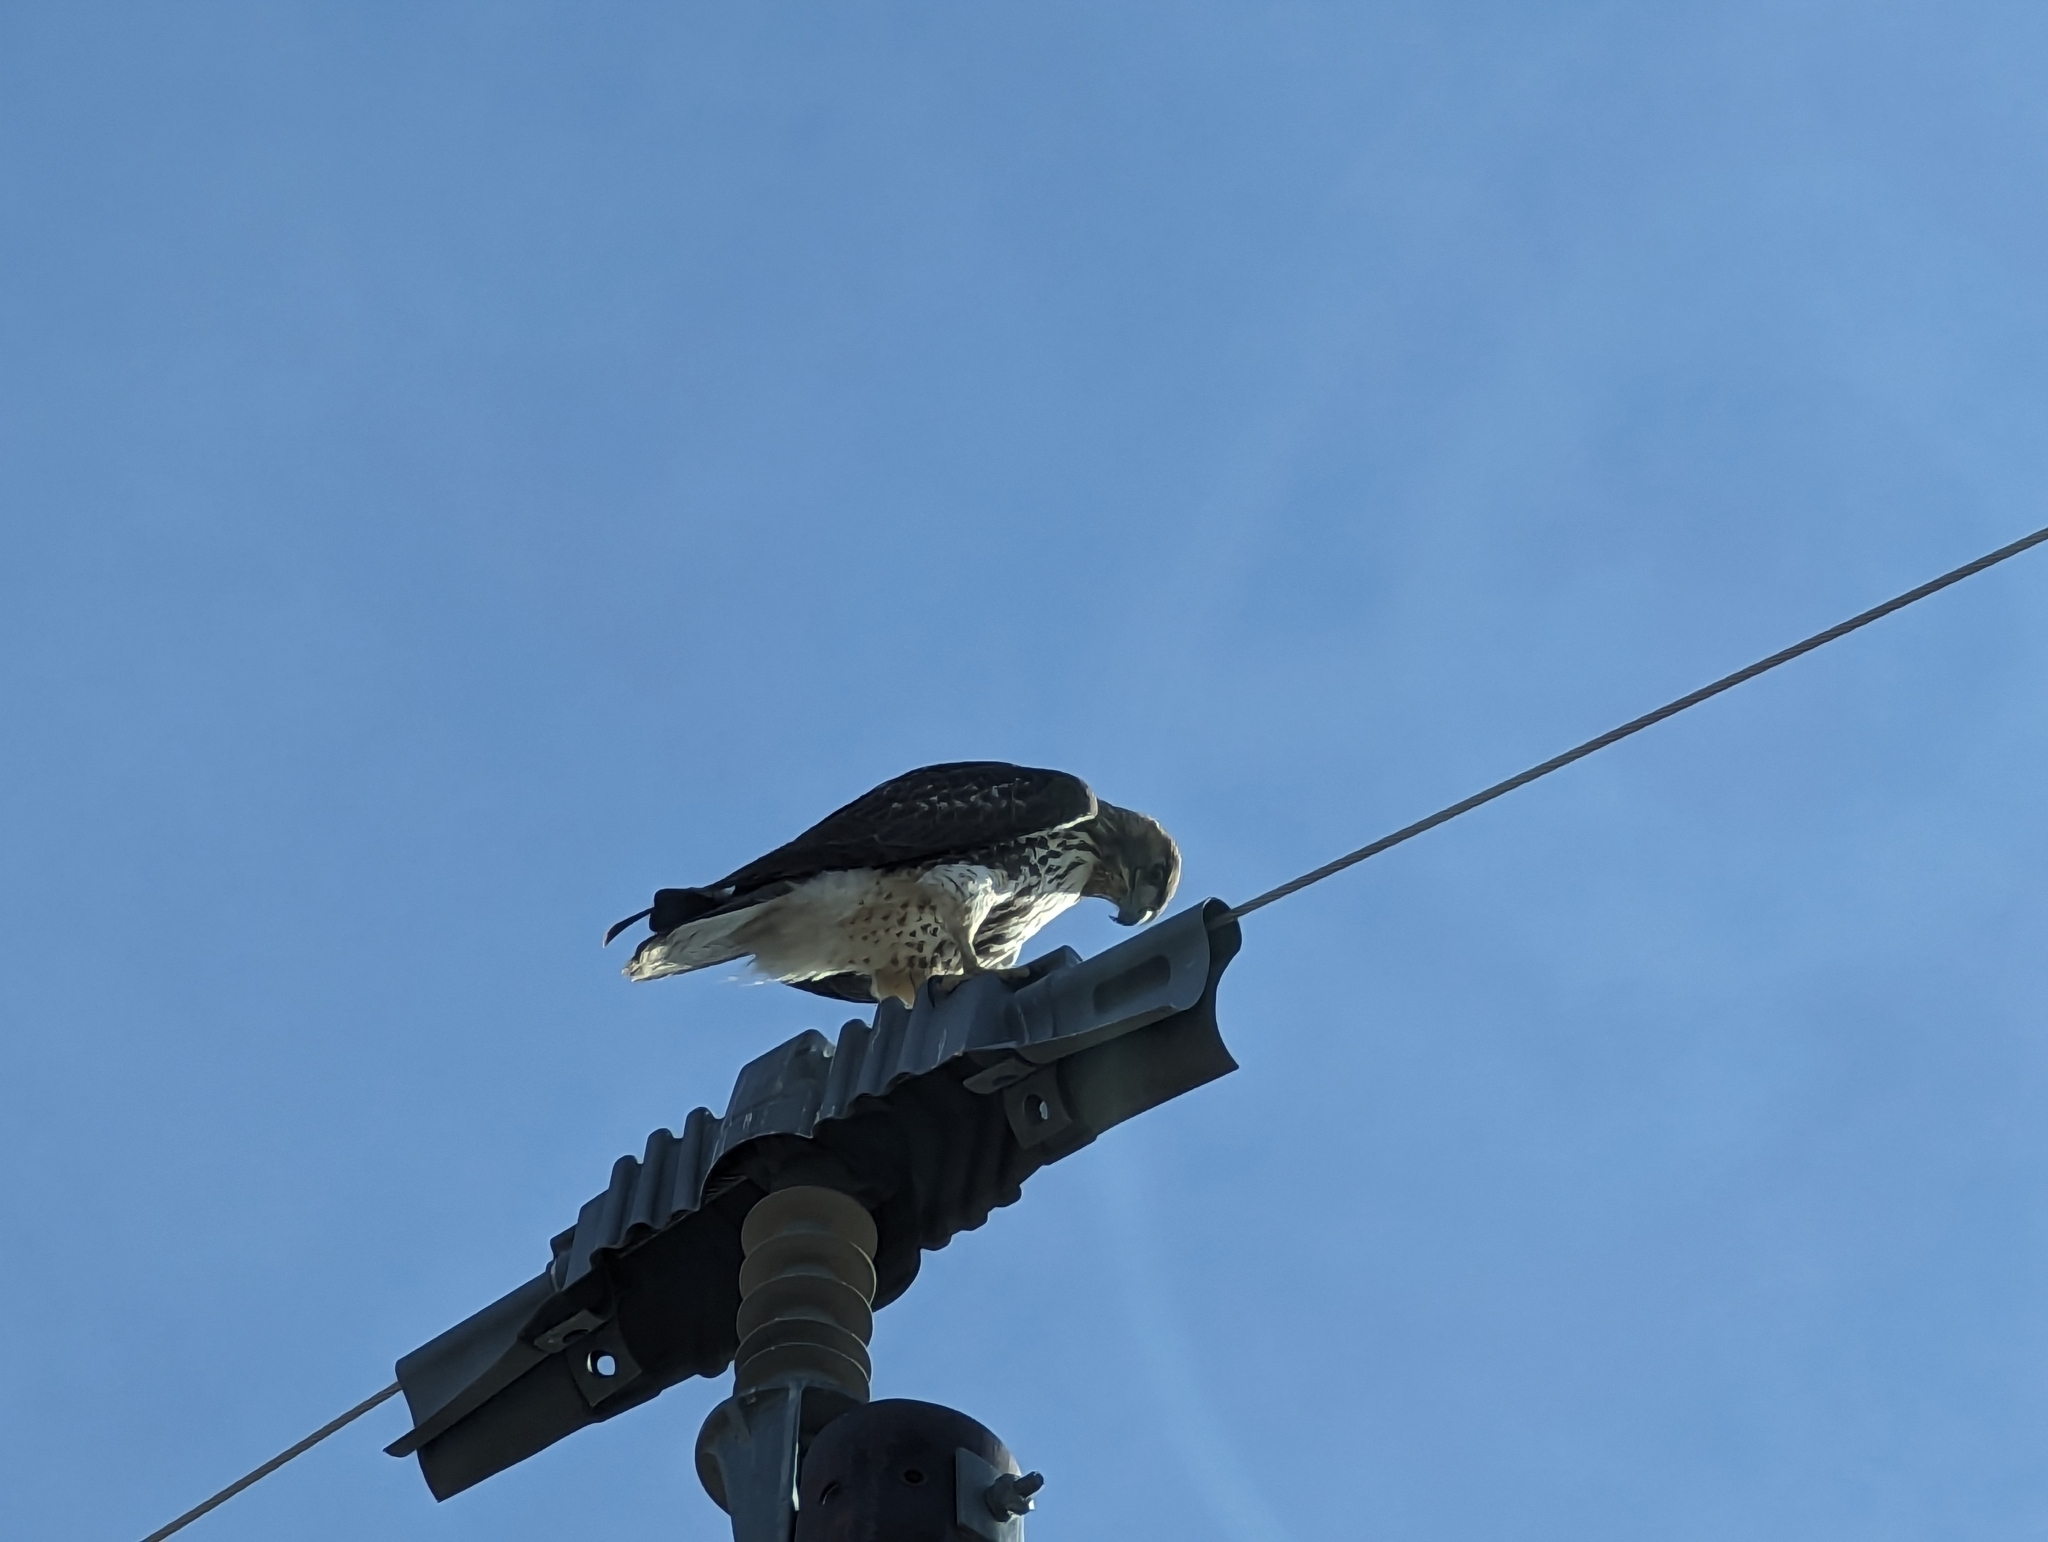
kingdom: Animalia
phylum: Chordata
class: Aves
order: Accipitriformes
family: Accipitridae
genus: Buteo
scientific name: Buteo jamaicensis
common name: Red-tailed hawk
